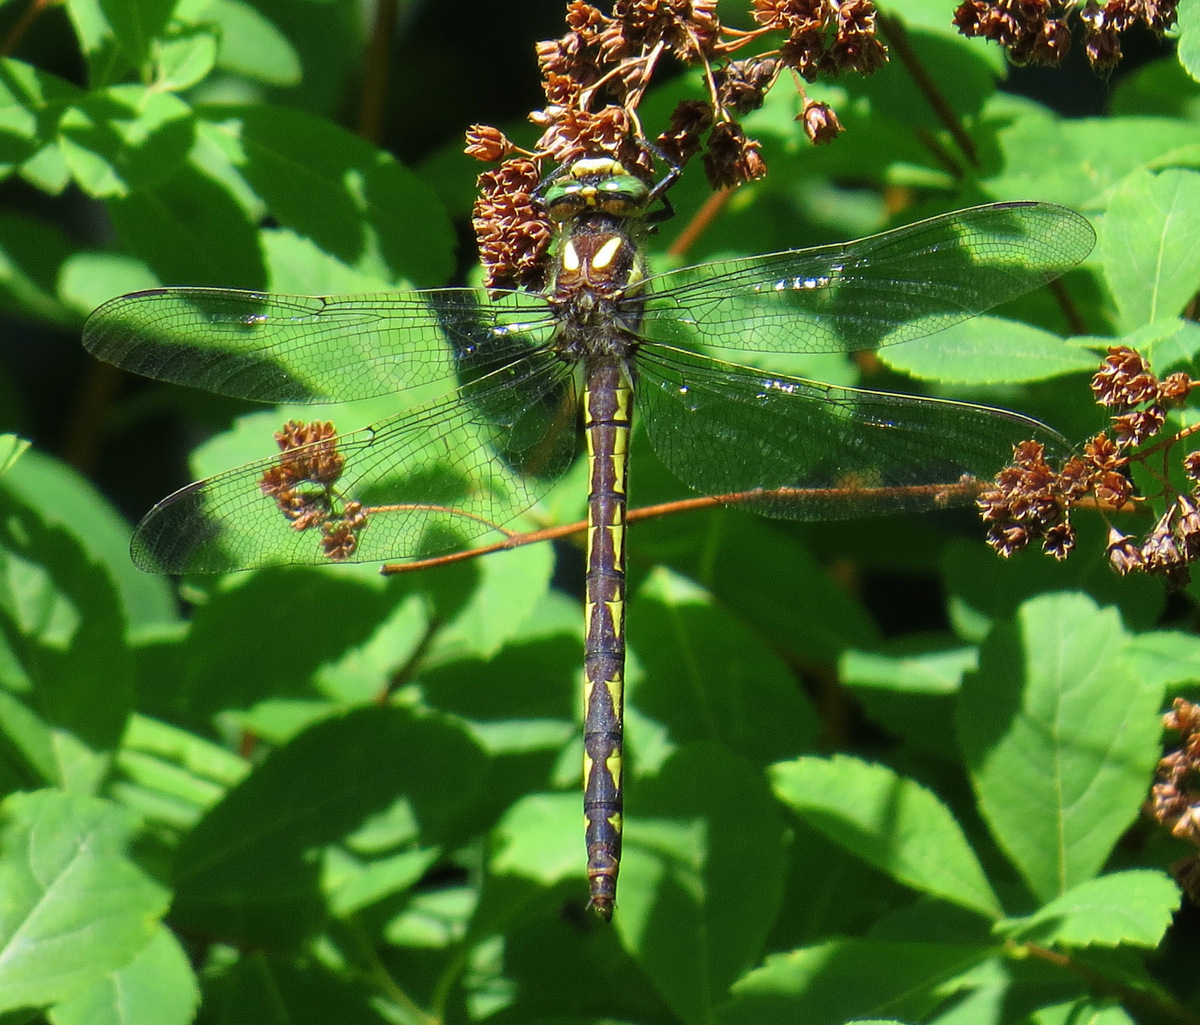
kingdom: Animalia
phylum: Arthropoda
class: Insecta
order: Odonata
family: Cordulegastridae
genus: Cordulegaster
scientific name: Cordulegaster diastatops
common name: Delta-spotted spiketail
